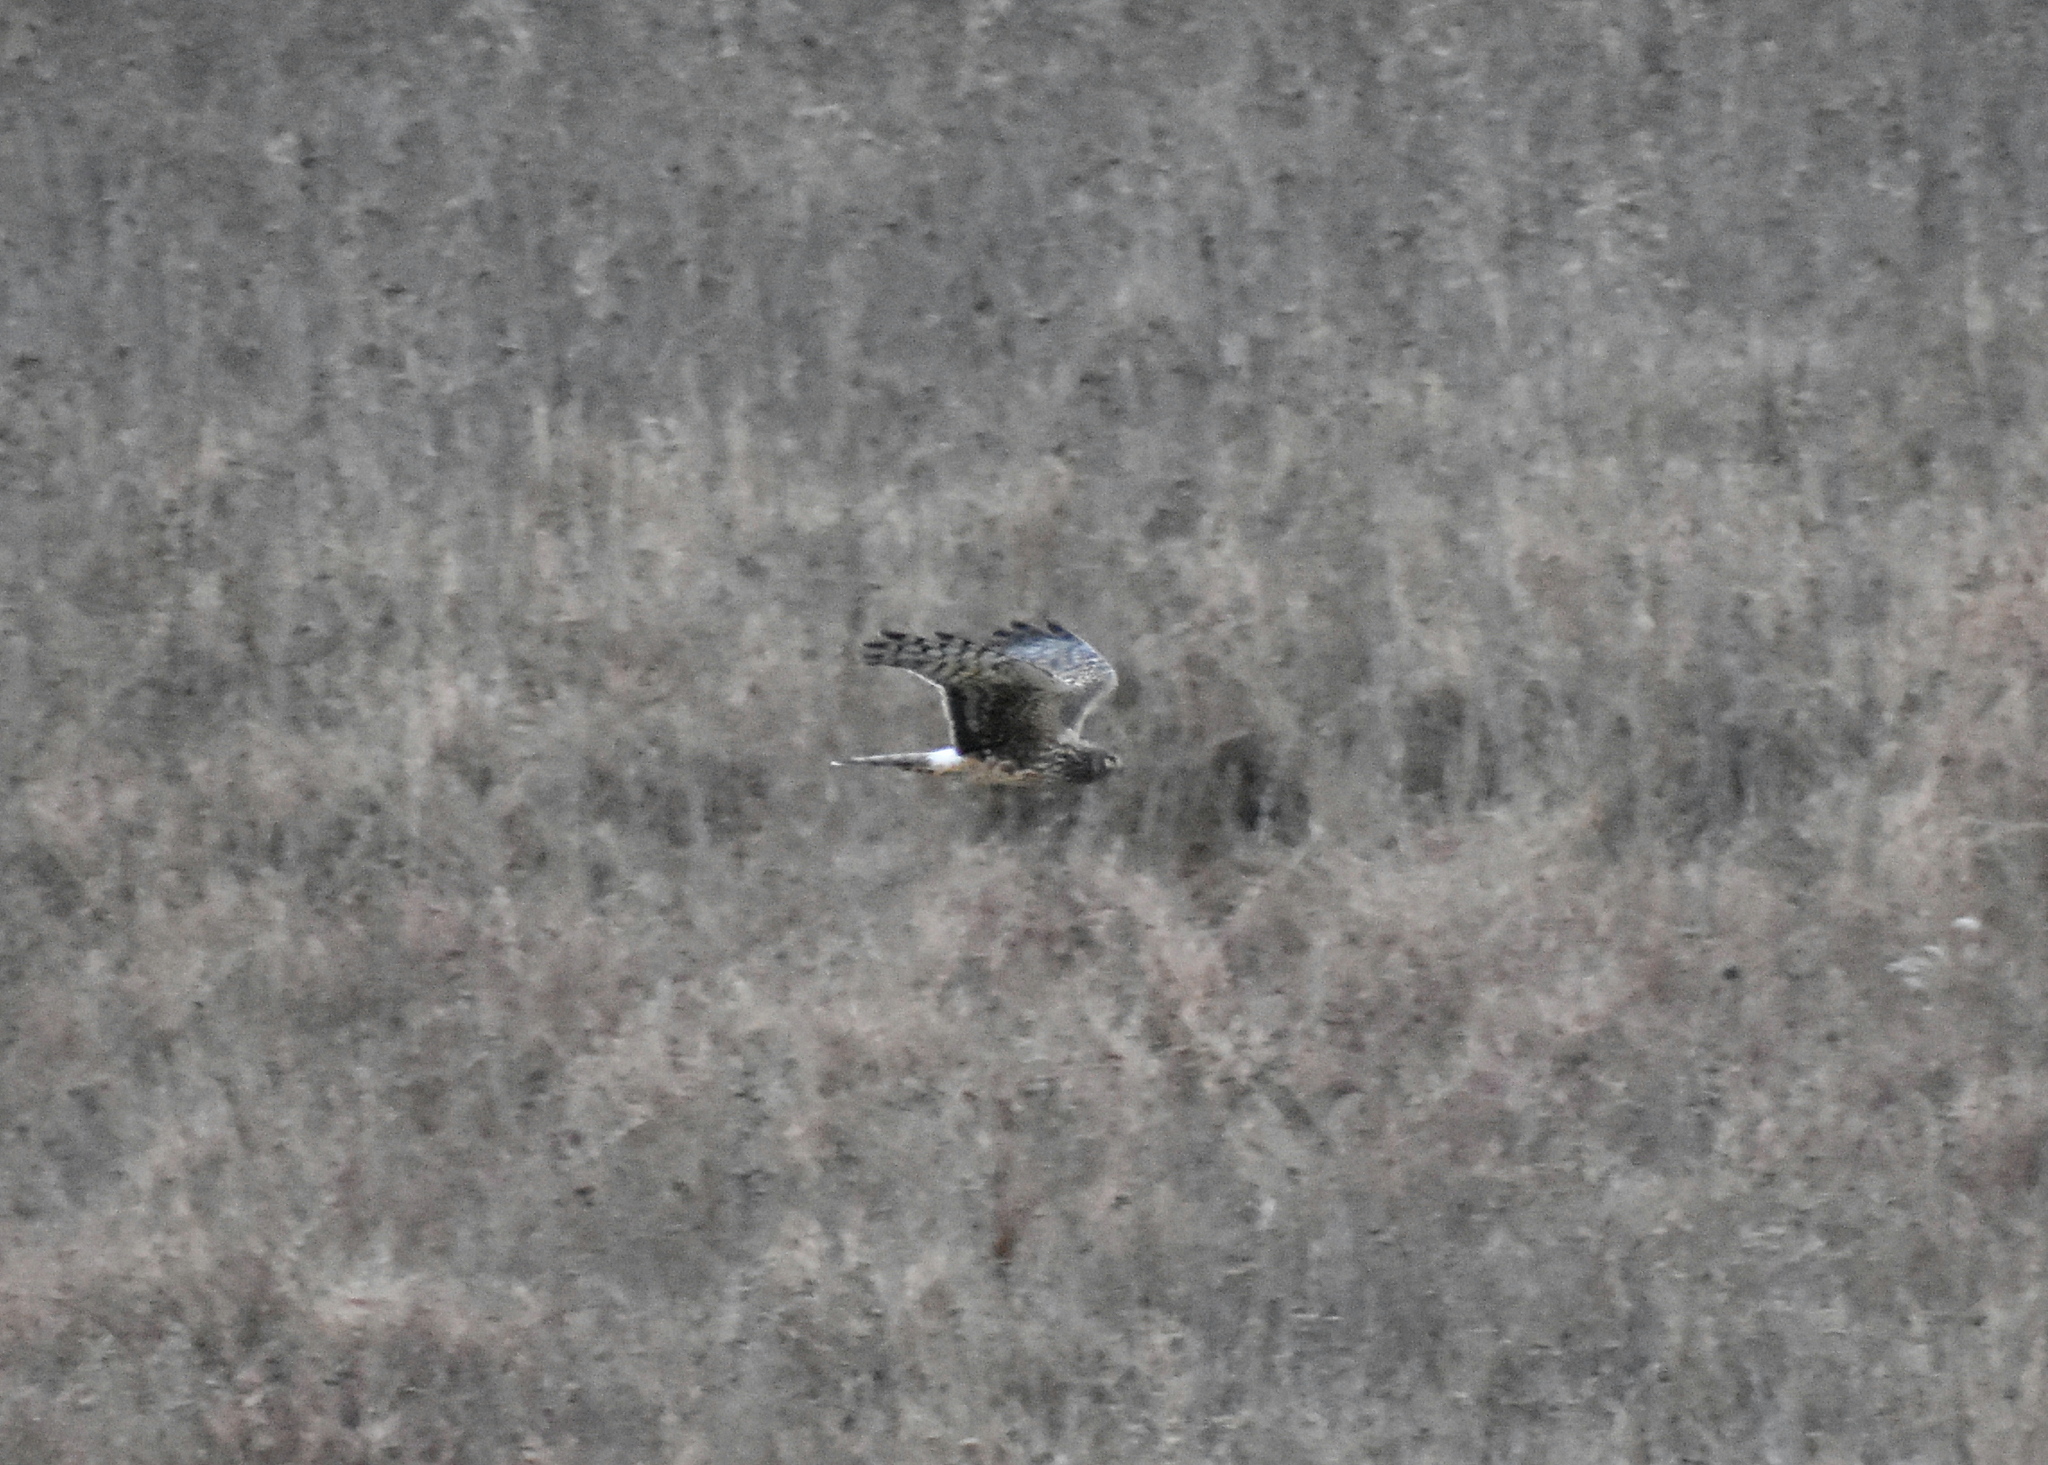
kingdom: Animalia
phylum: Chordata
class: Aves
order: Accipitriformes
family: Accipitridae
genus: Circus
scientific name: Circus cyaneus
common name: Hen harrier
